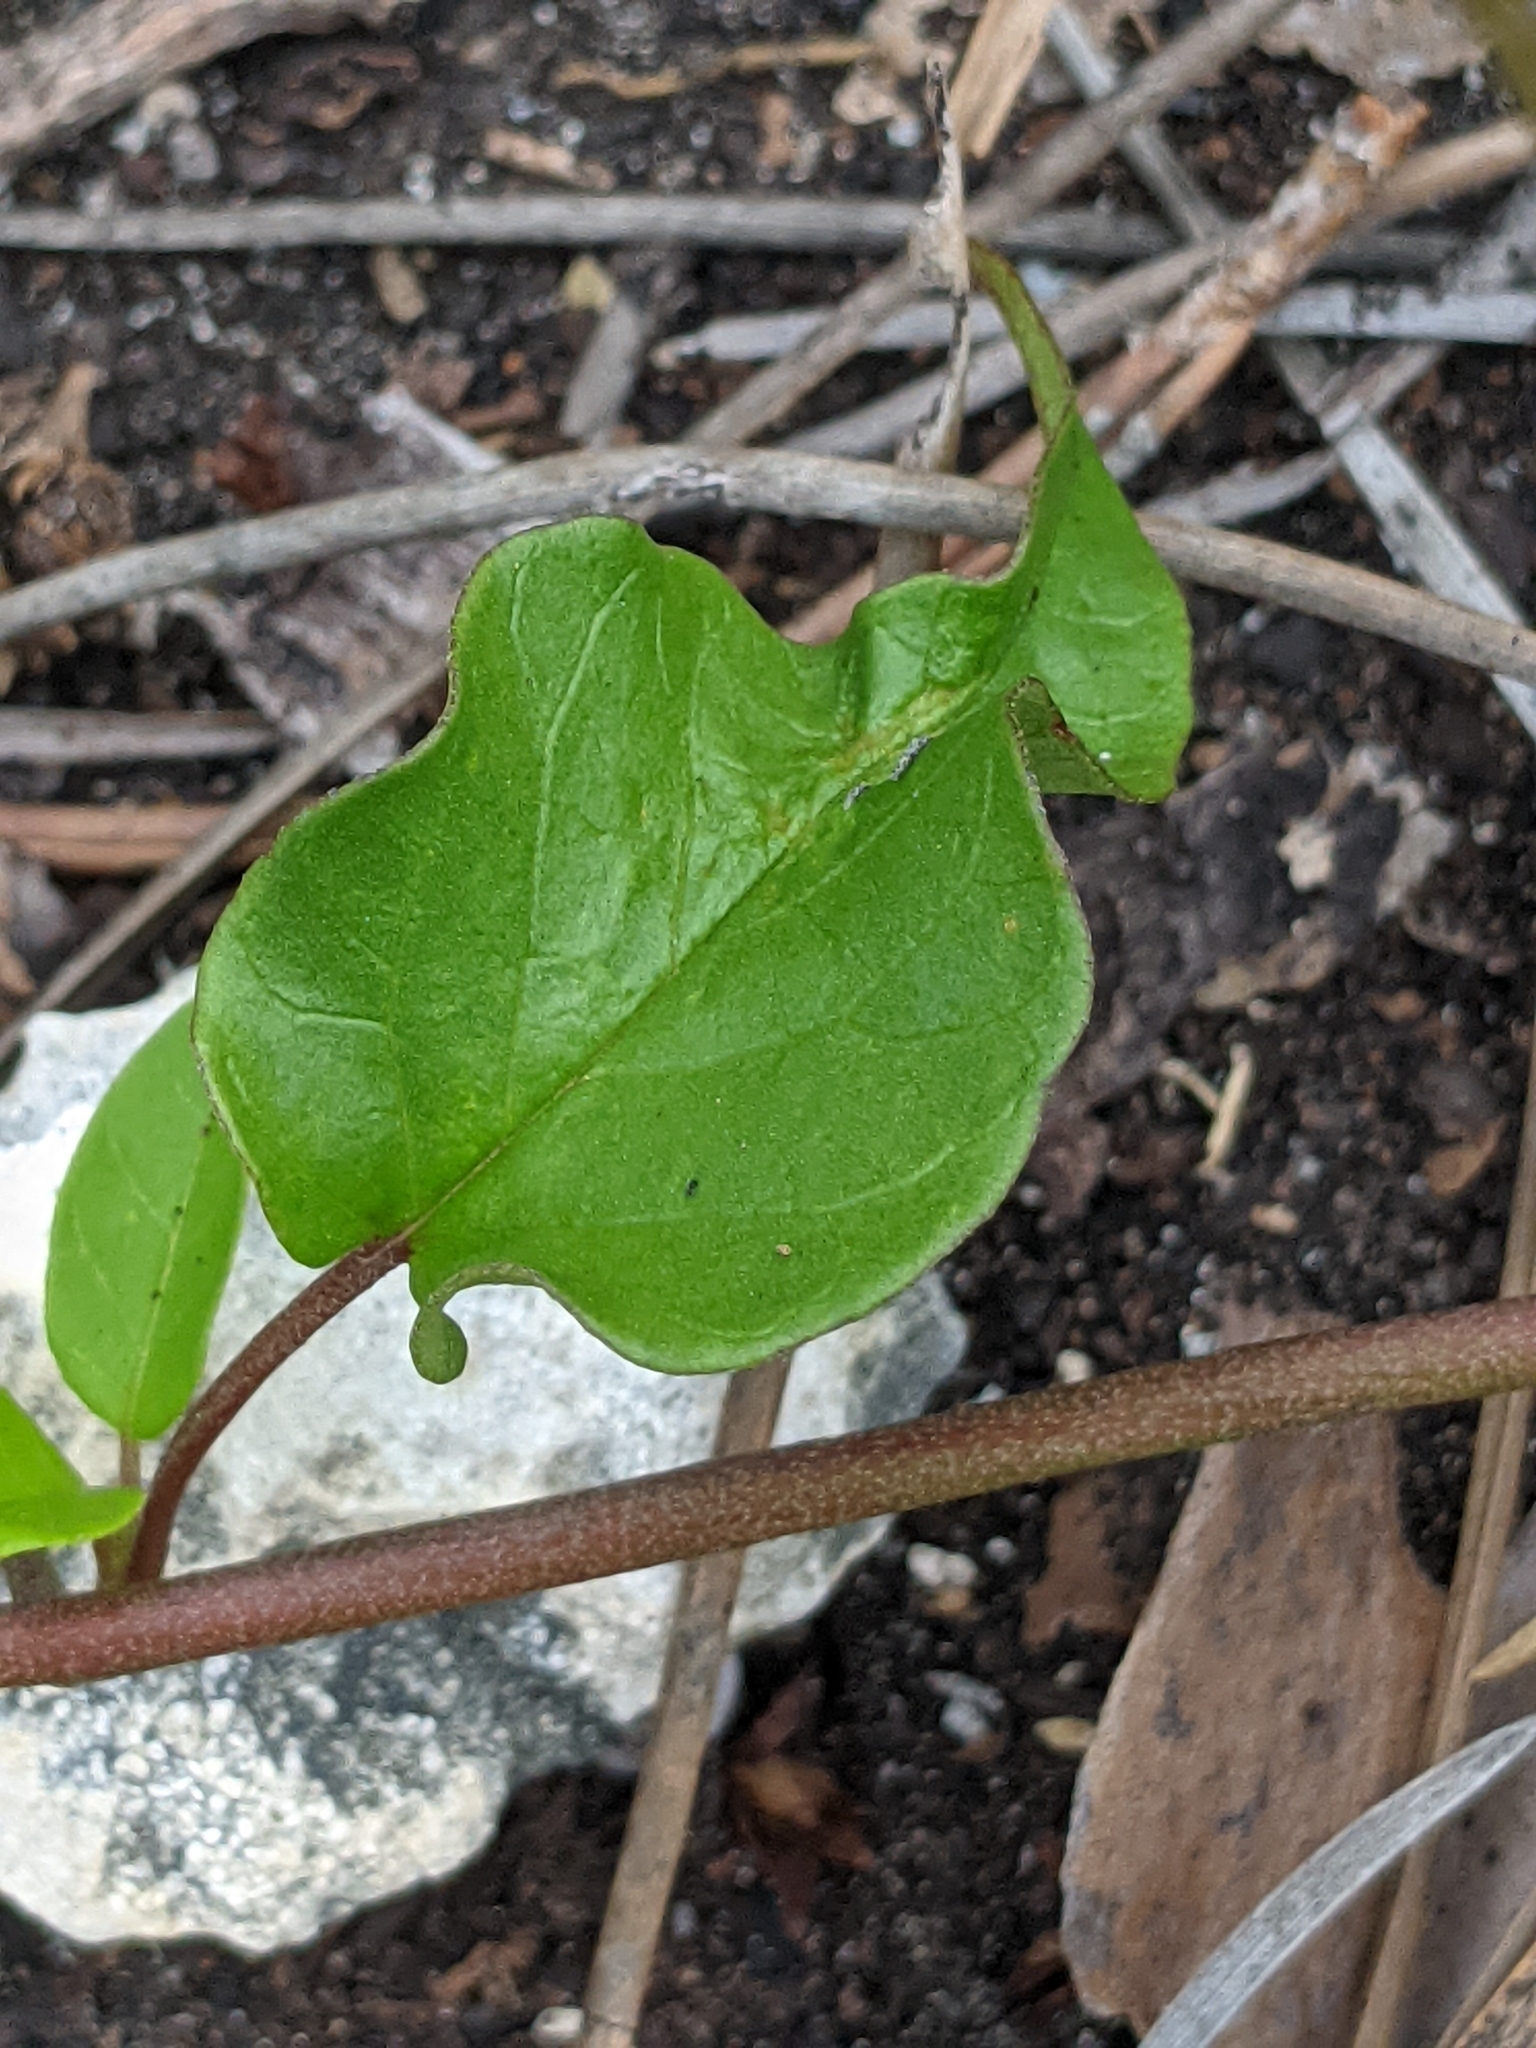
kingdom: Plantae
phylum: Tracheophyta
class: Magnoliopsida
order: Solanales
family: Convolvulaceae
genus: Jacquemontia
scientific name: Jacquemontia pentanthos
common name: Skyblue clustervine
